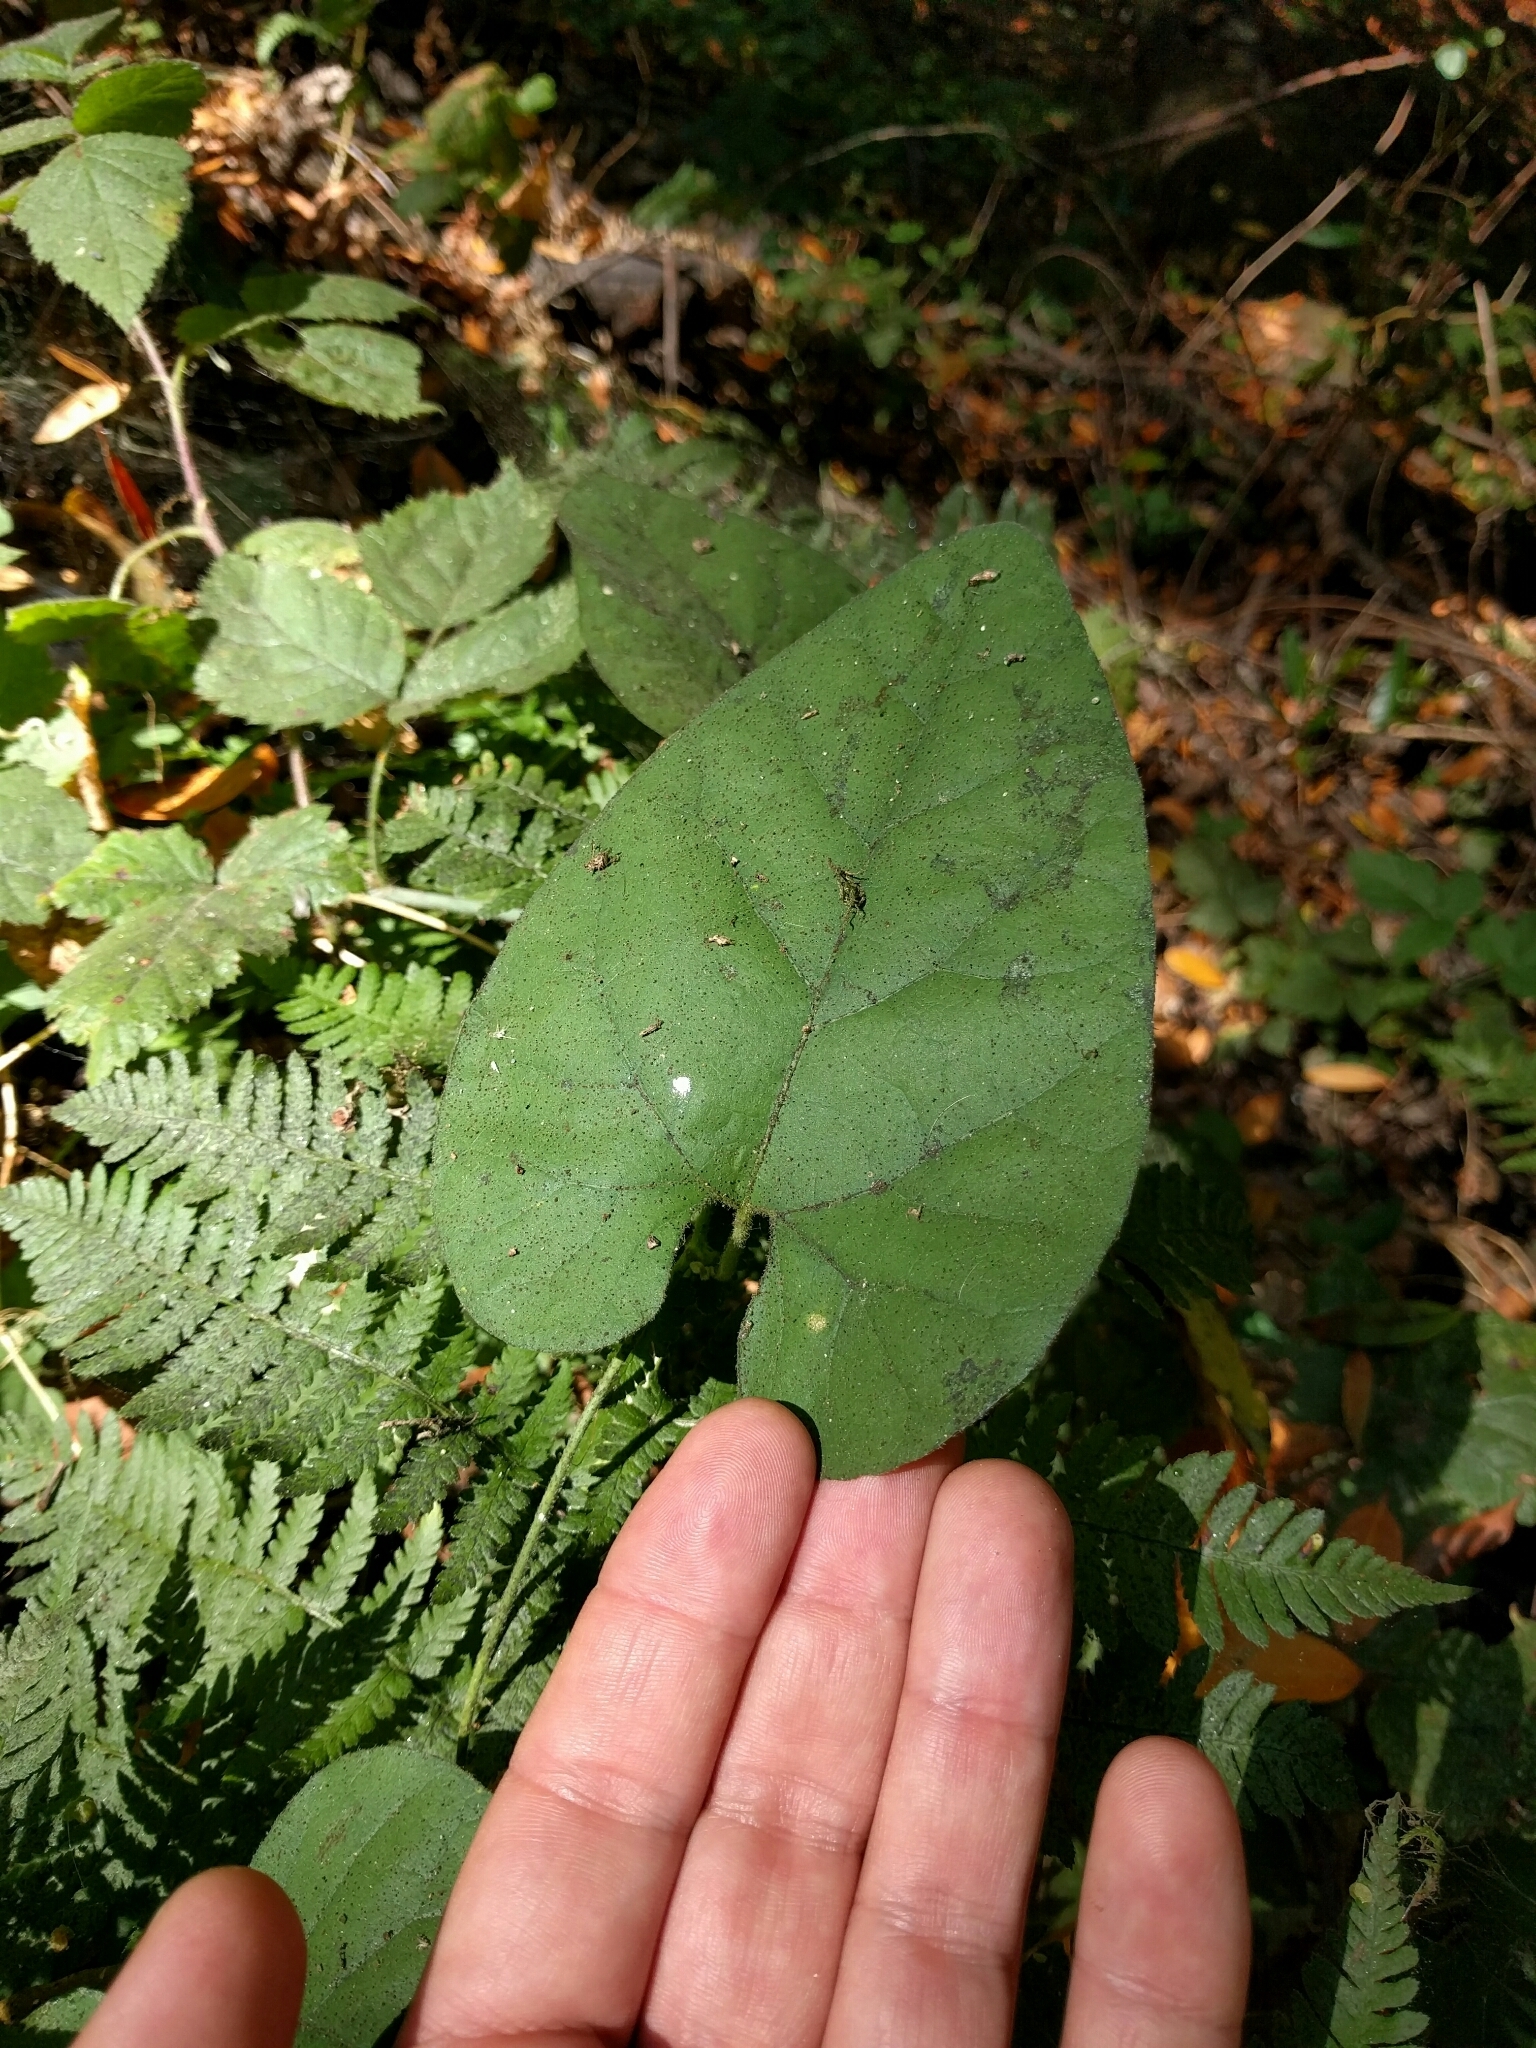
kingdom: Plantae
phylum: Tracheophyta
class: Magnoliopsida
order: Piperales
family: Aristolochiaceae
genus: Isotrema
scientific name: Isotrema californicum
